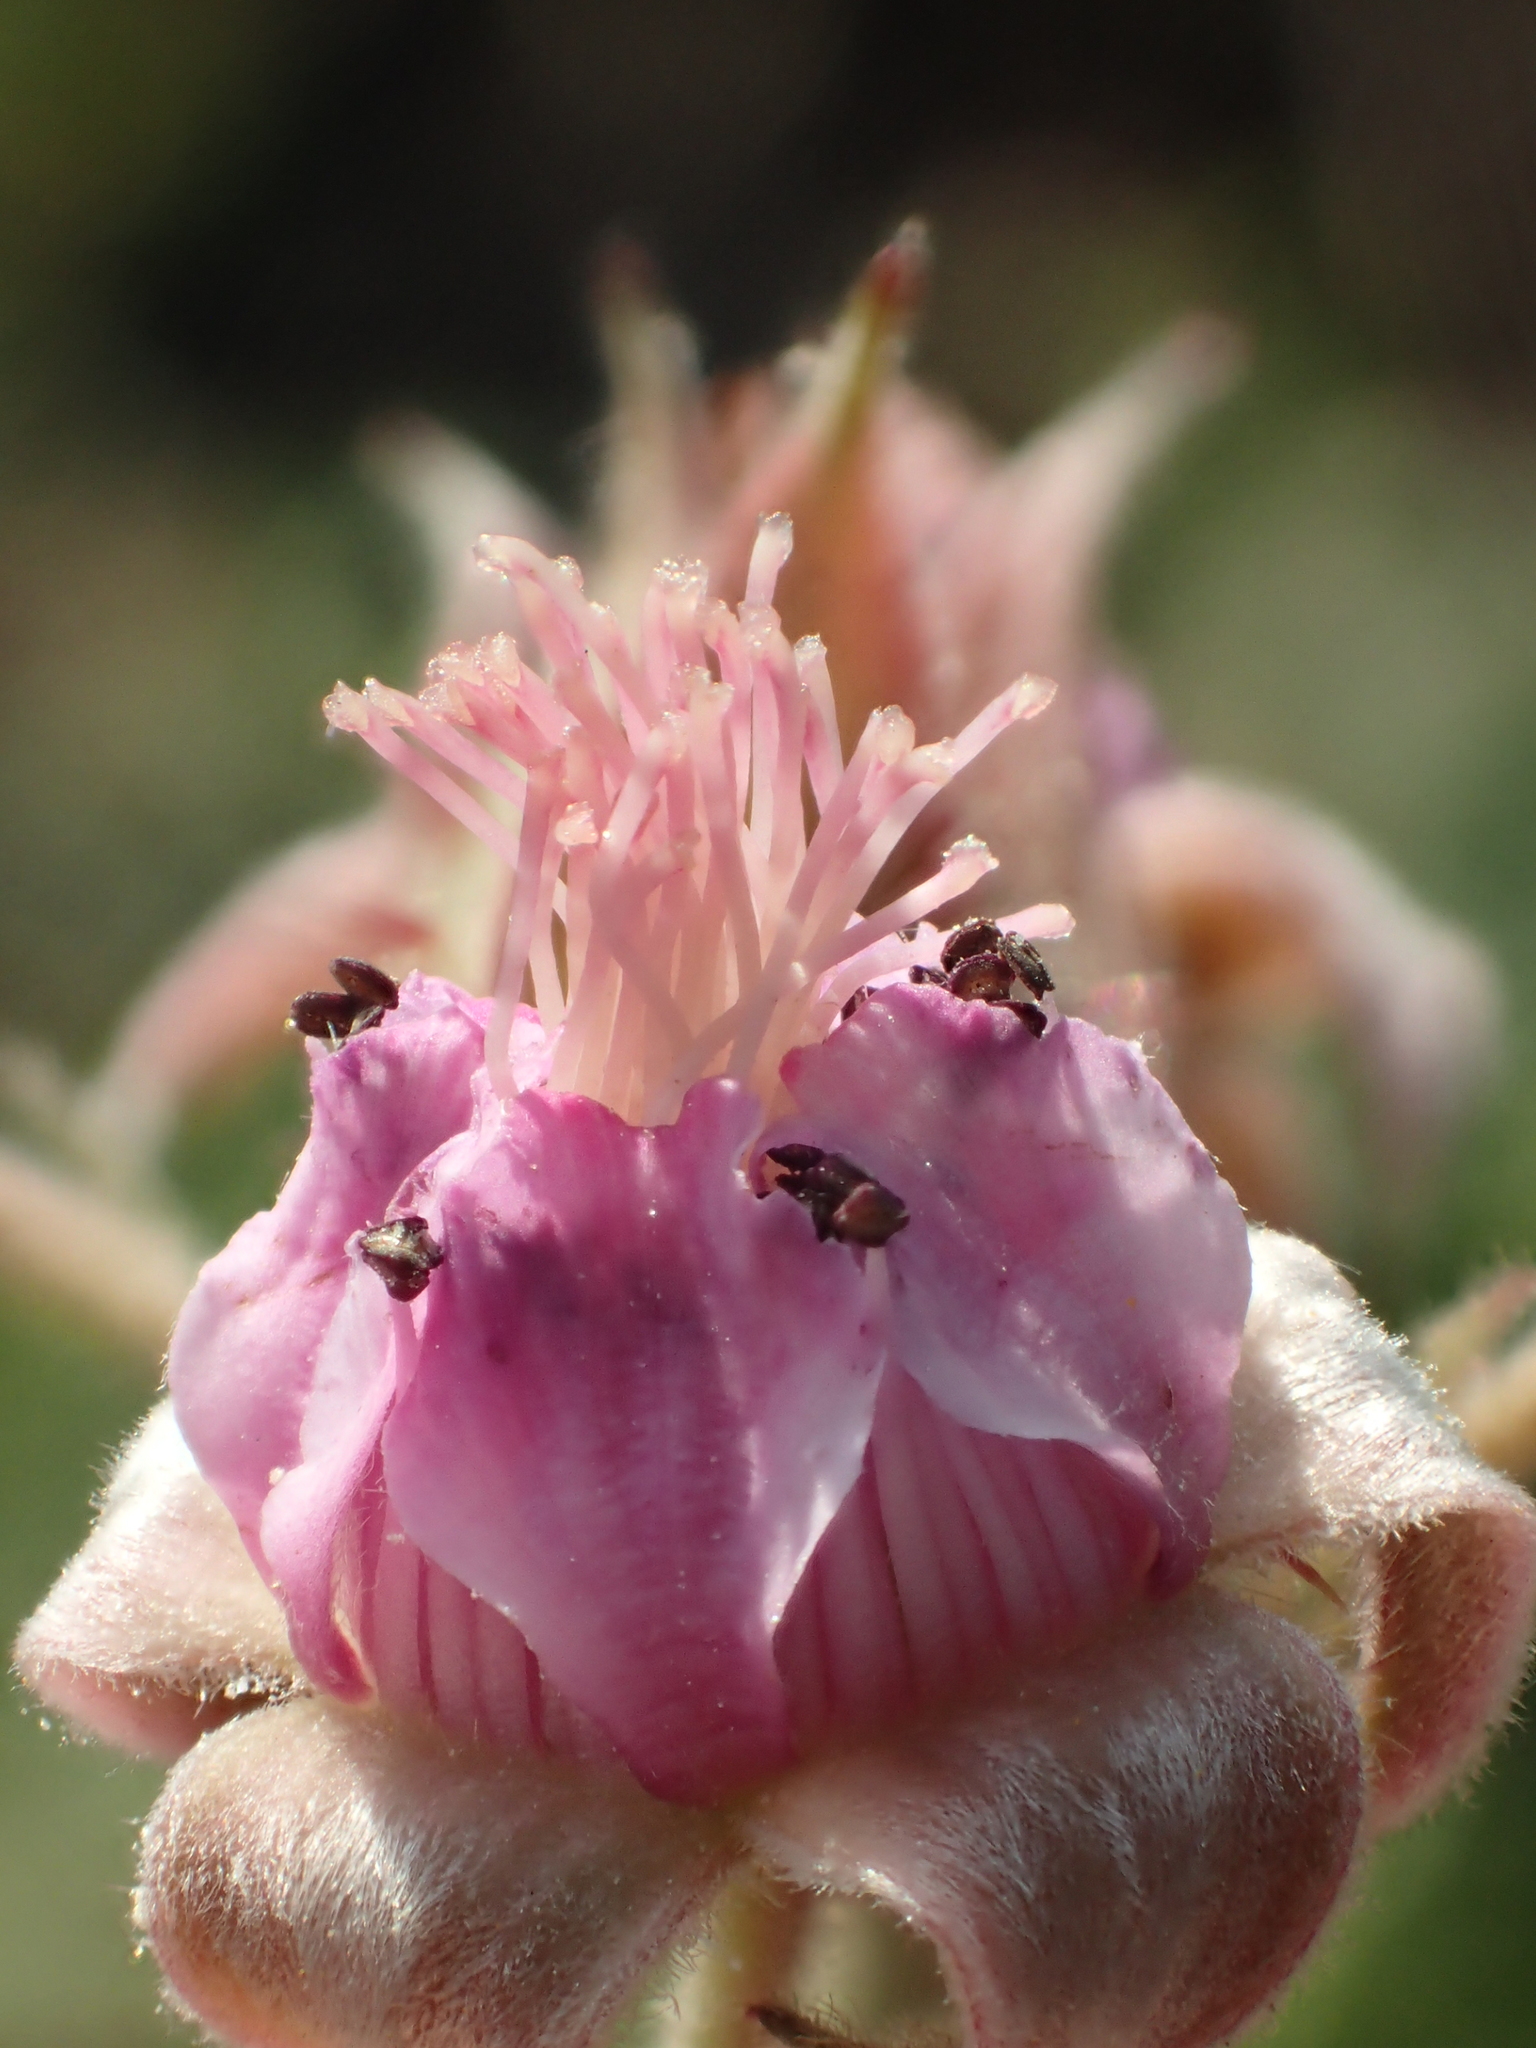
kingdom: Plantae
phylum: Tracheophyta
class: Magnoliopsida
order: Rosales
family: Rosaceae
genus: Rubus
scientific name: Rubus parvifolius
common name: Threeleaf blackberry
